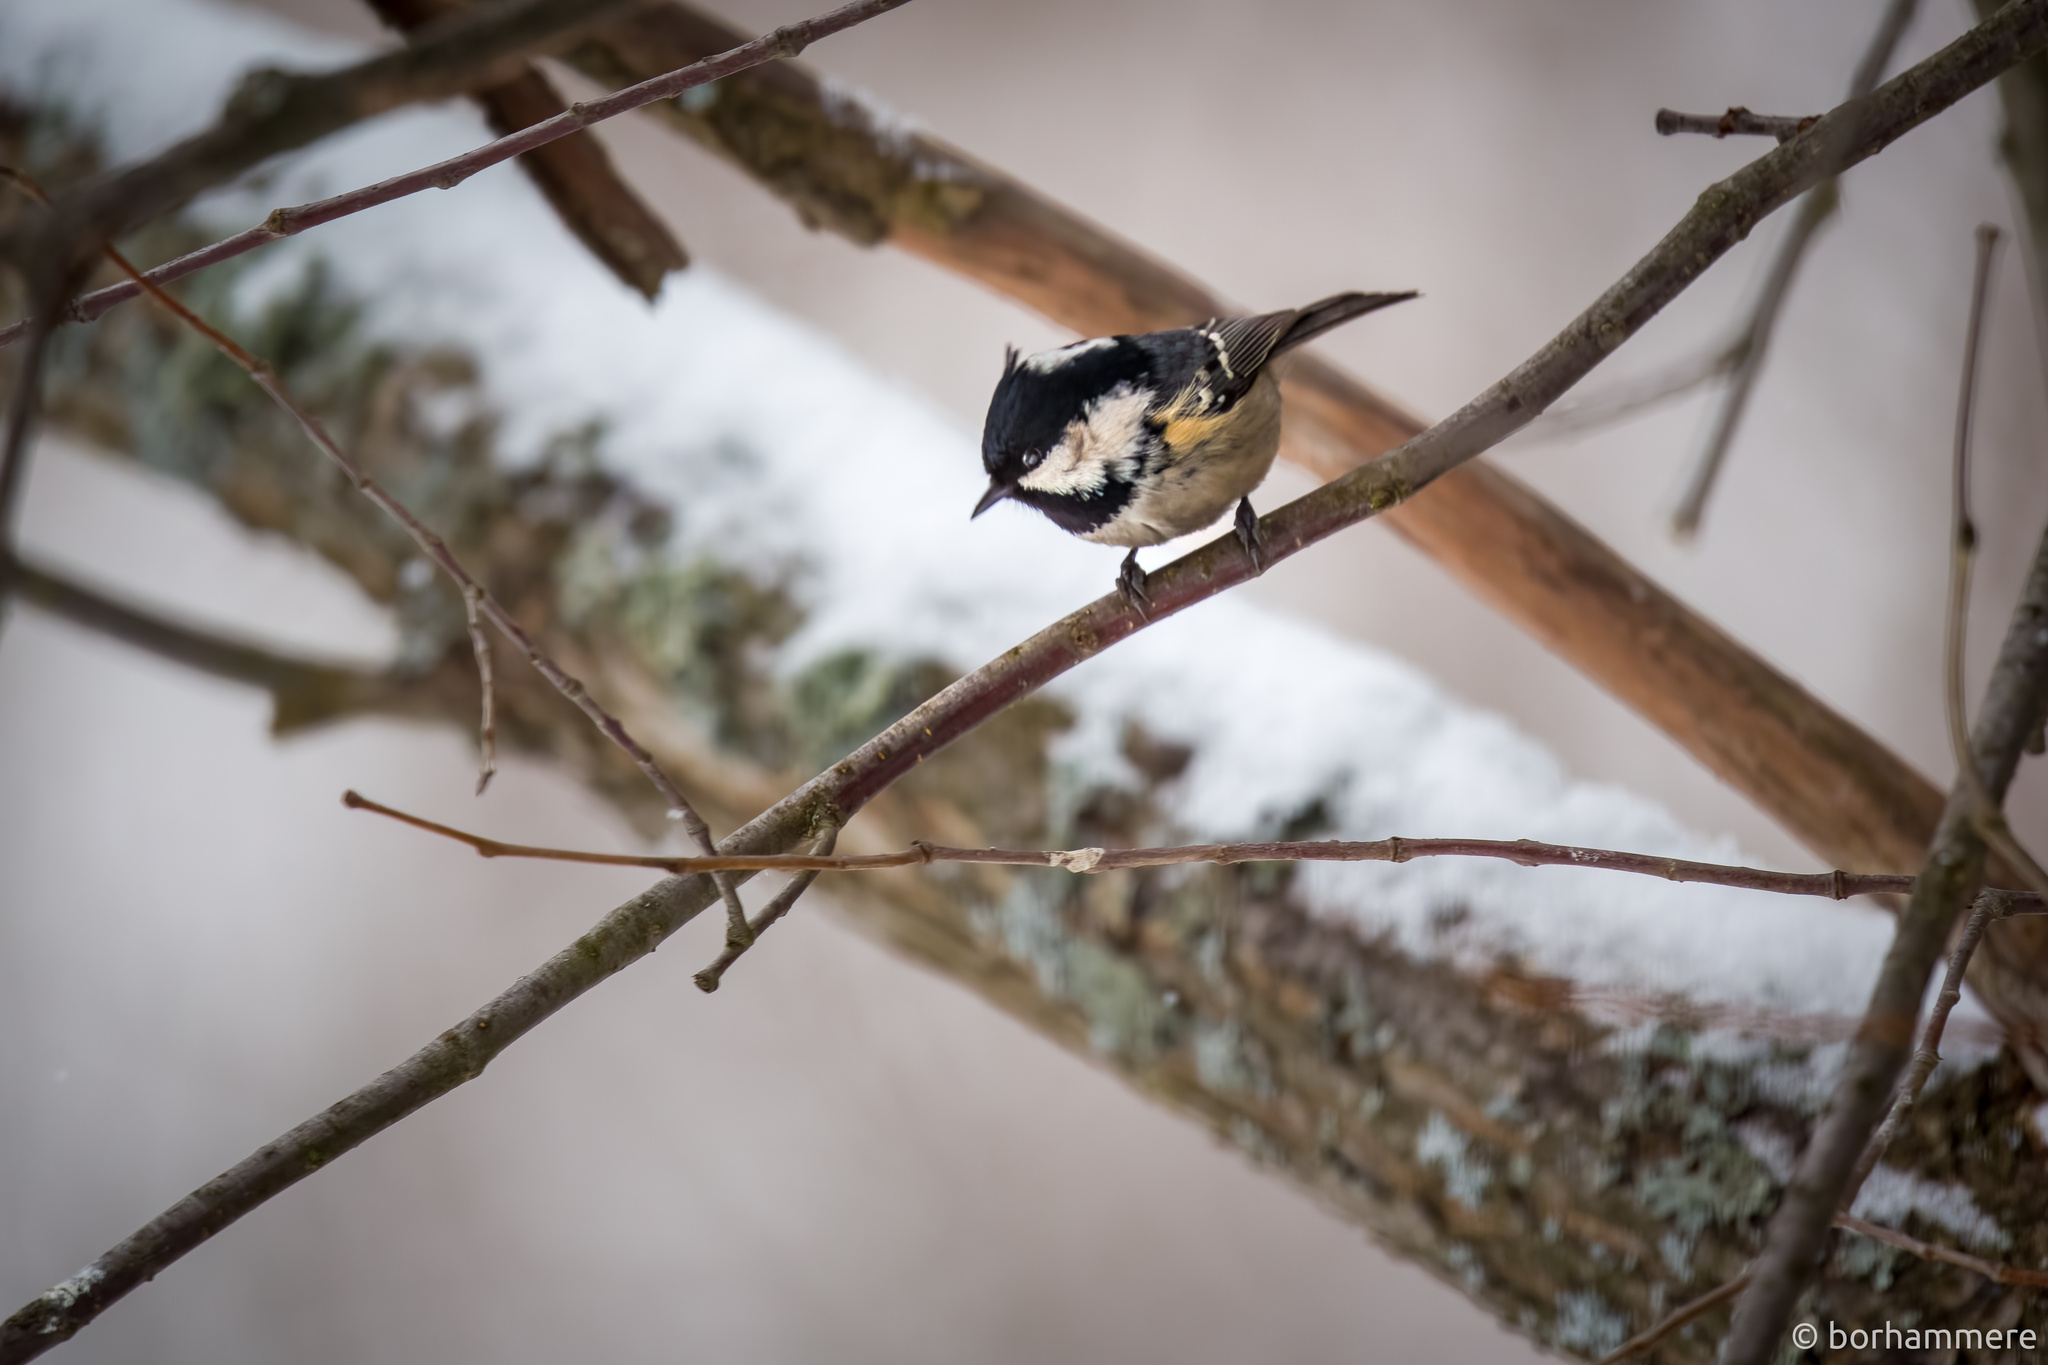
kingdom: Animalia
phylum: Chordata
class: Aves
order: Passeriformes
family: Paridae
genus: Periparus
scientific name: Periparus ater
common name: Coal tit
